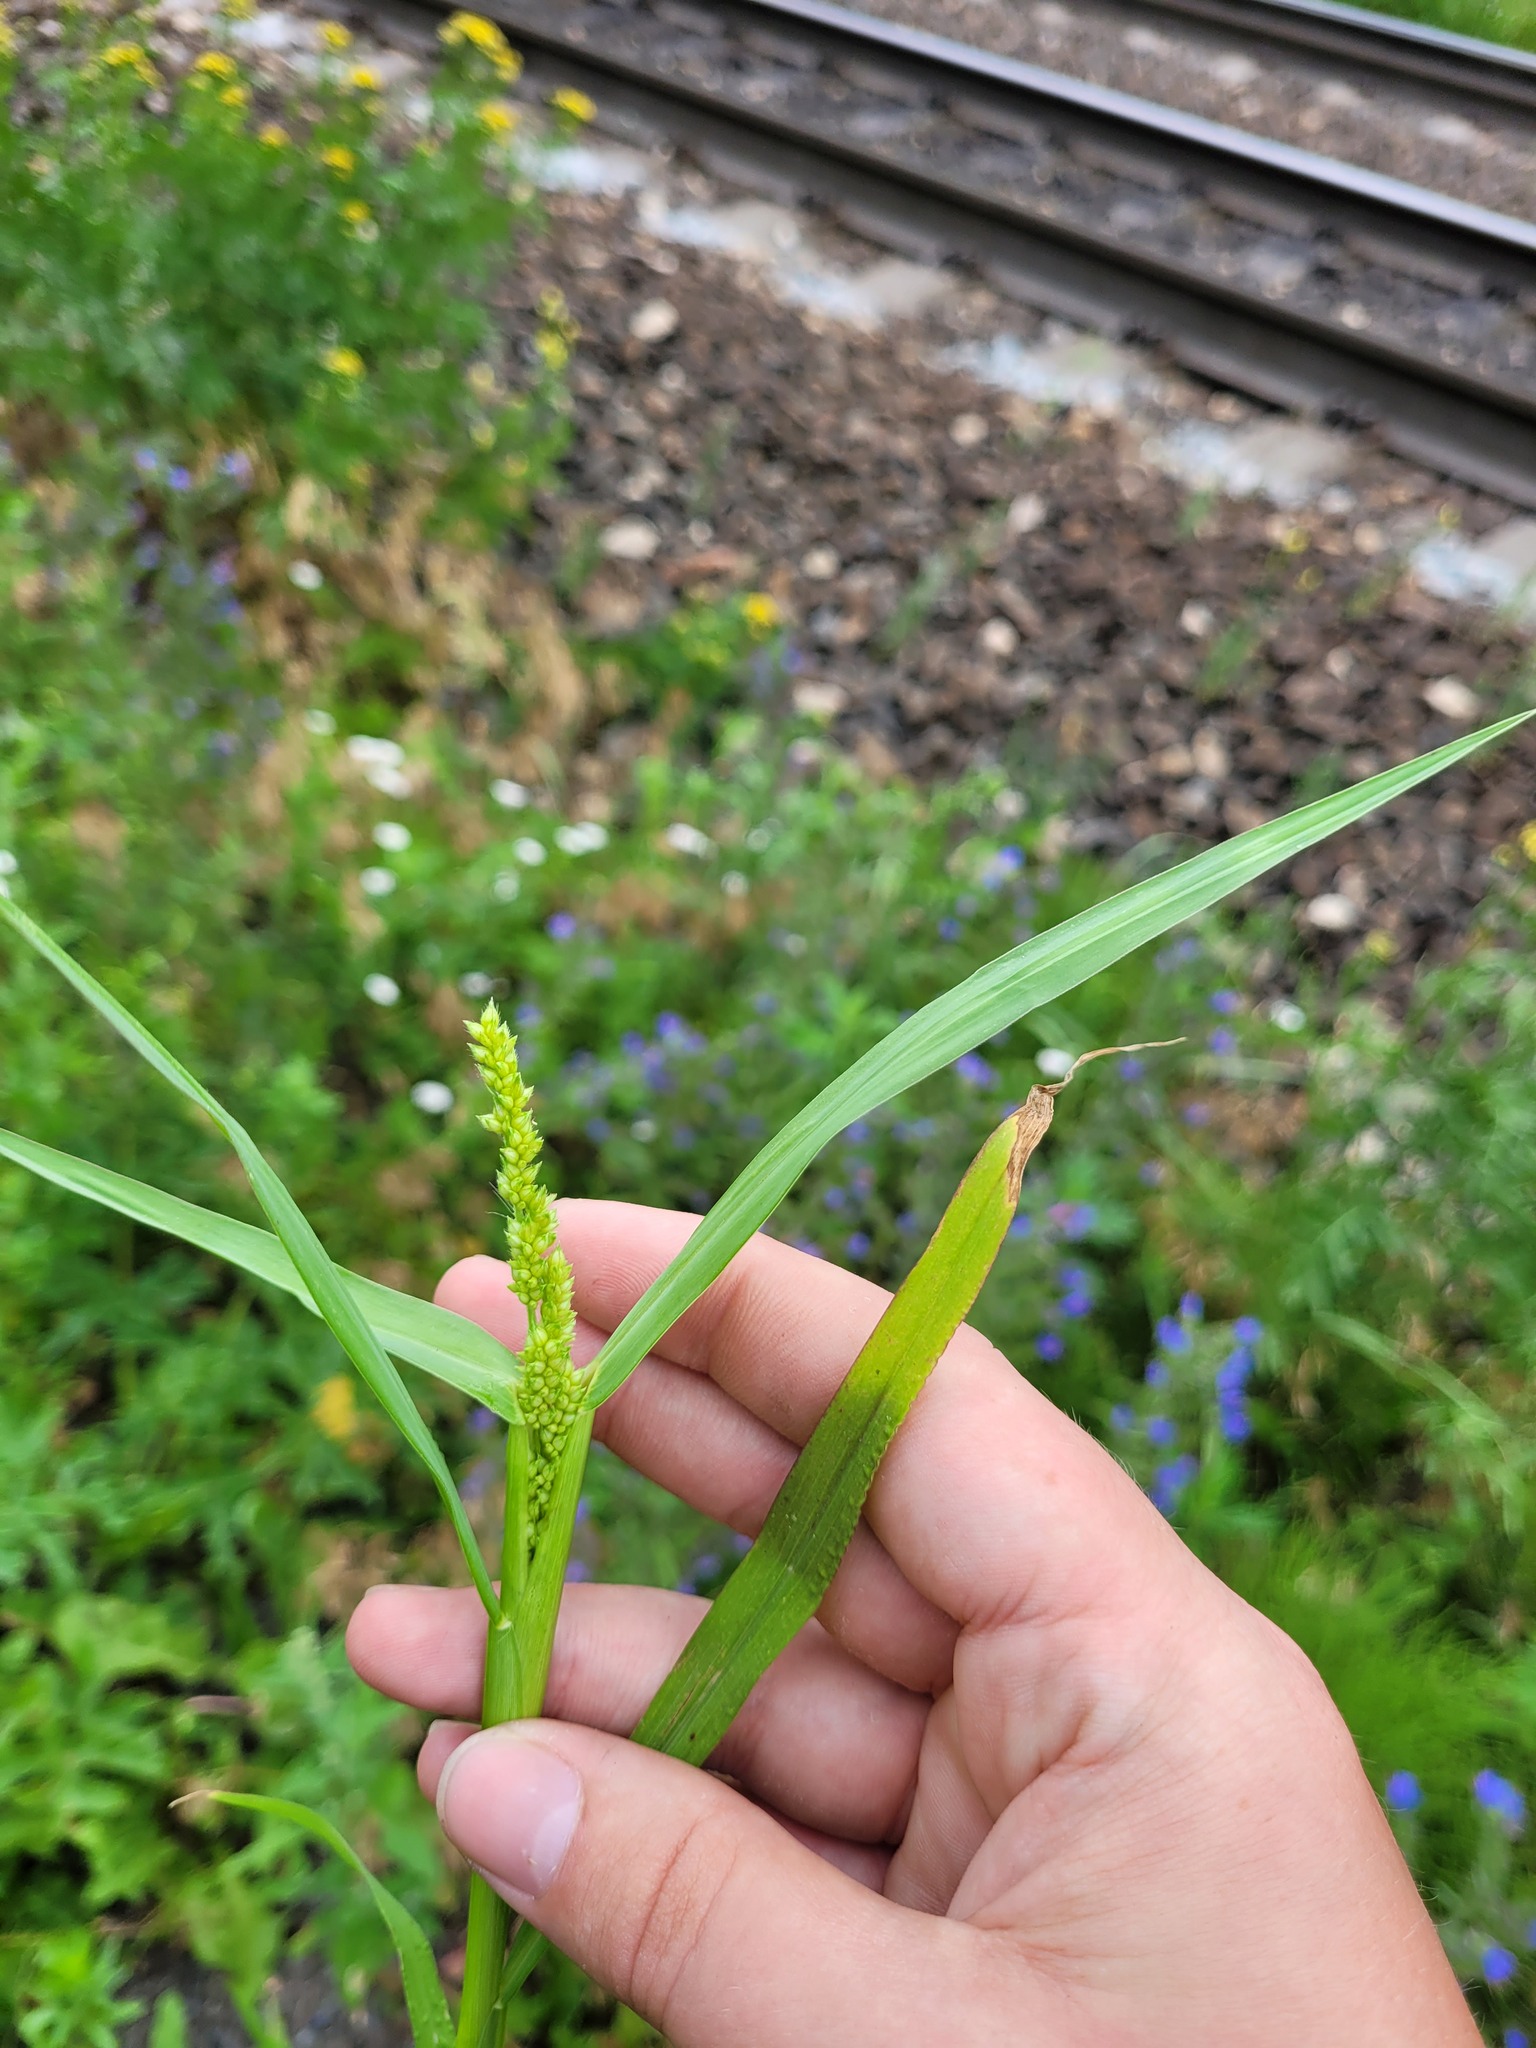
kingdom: Plantae
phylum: Tracheophyta
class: Liliopsida
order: Poales
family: Poaceae
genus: Echinochloa
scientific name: Echinochloa crus-galli
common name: Cockspur
